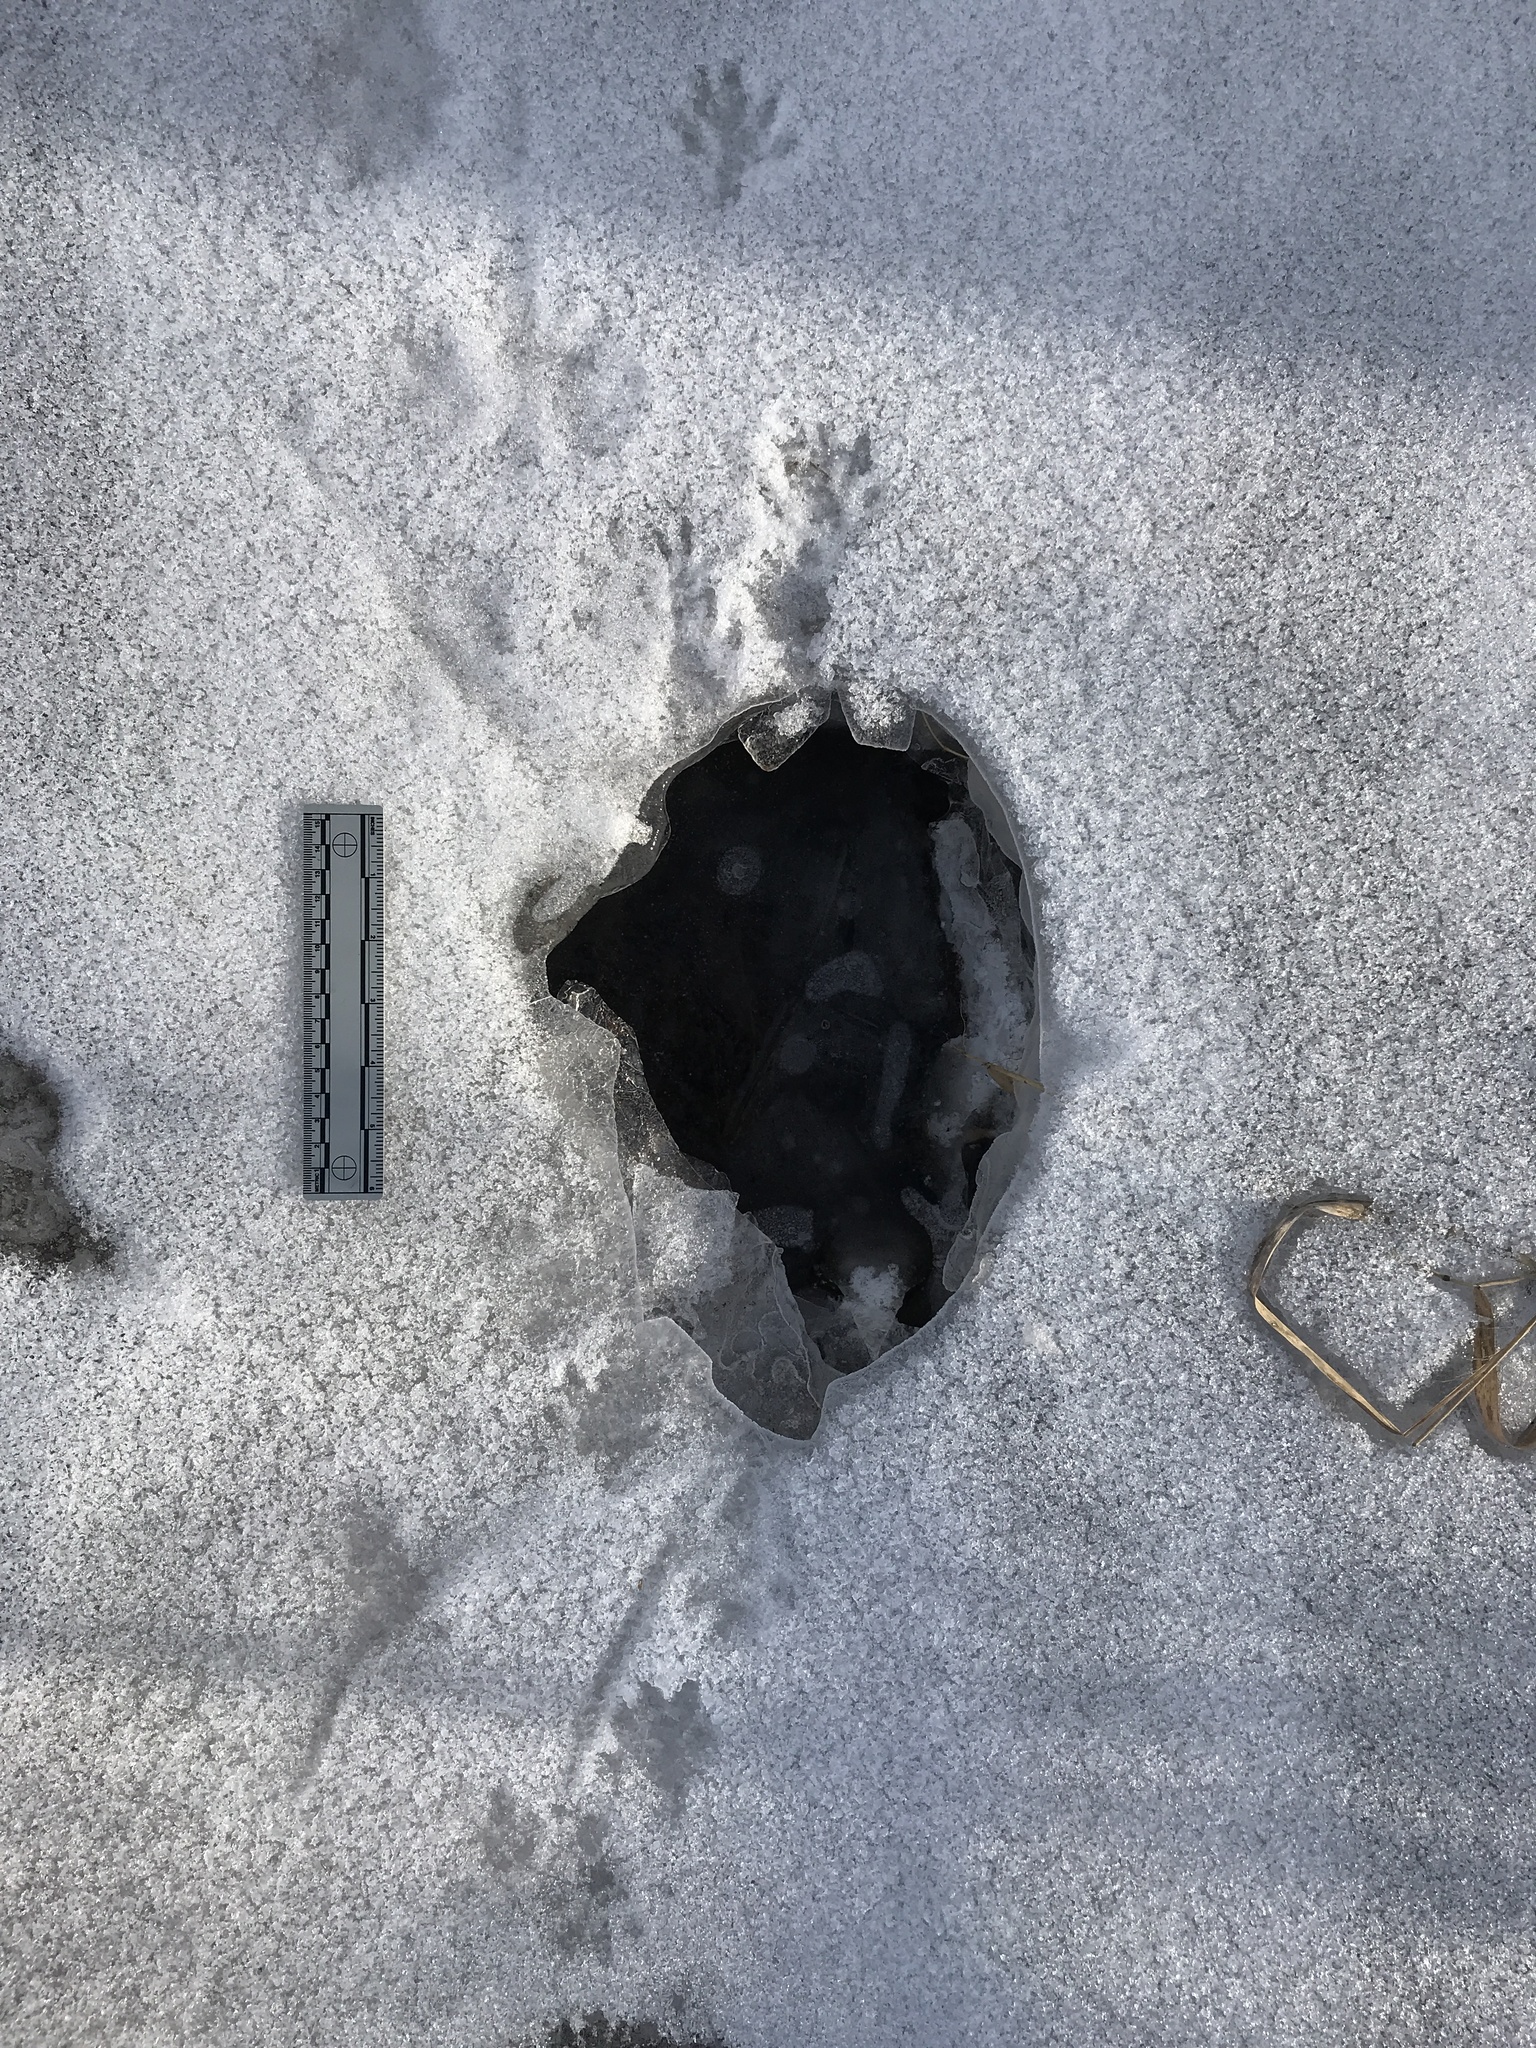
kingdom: Animalia
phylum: Chordata
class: Mammalia
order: Rodentia
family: Cricetidae
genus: Ondatra
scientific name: Ondatra zibethicus
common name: Muskrat
